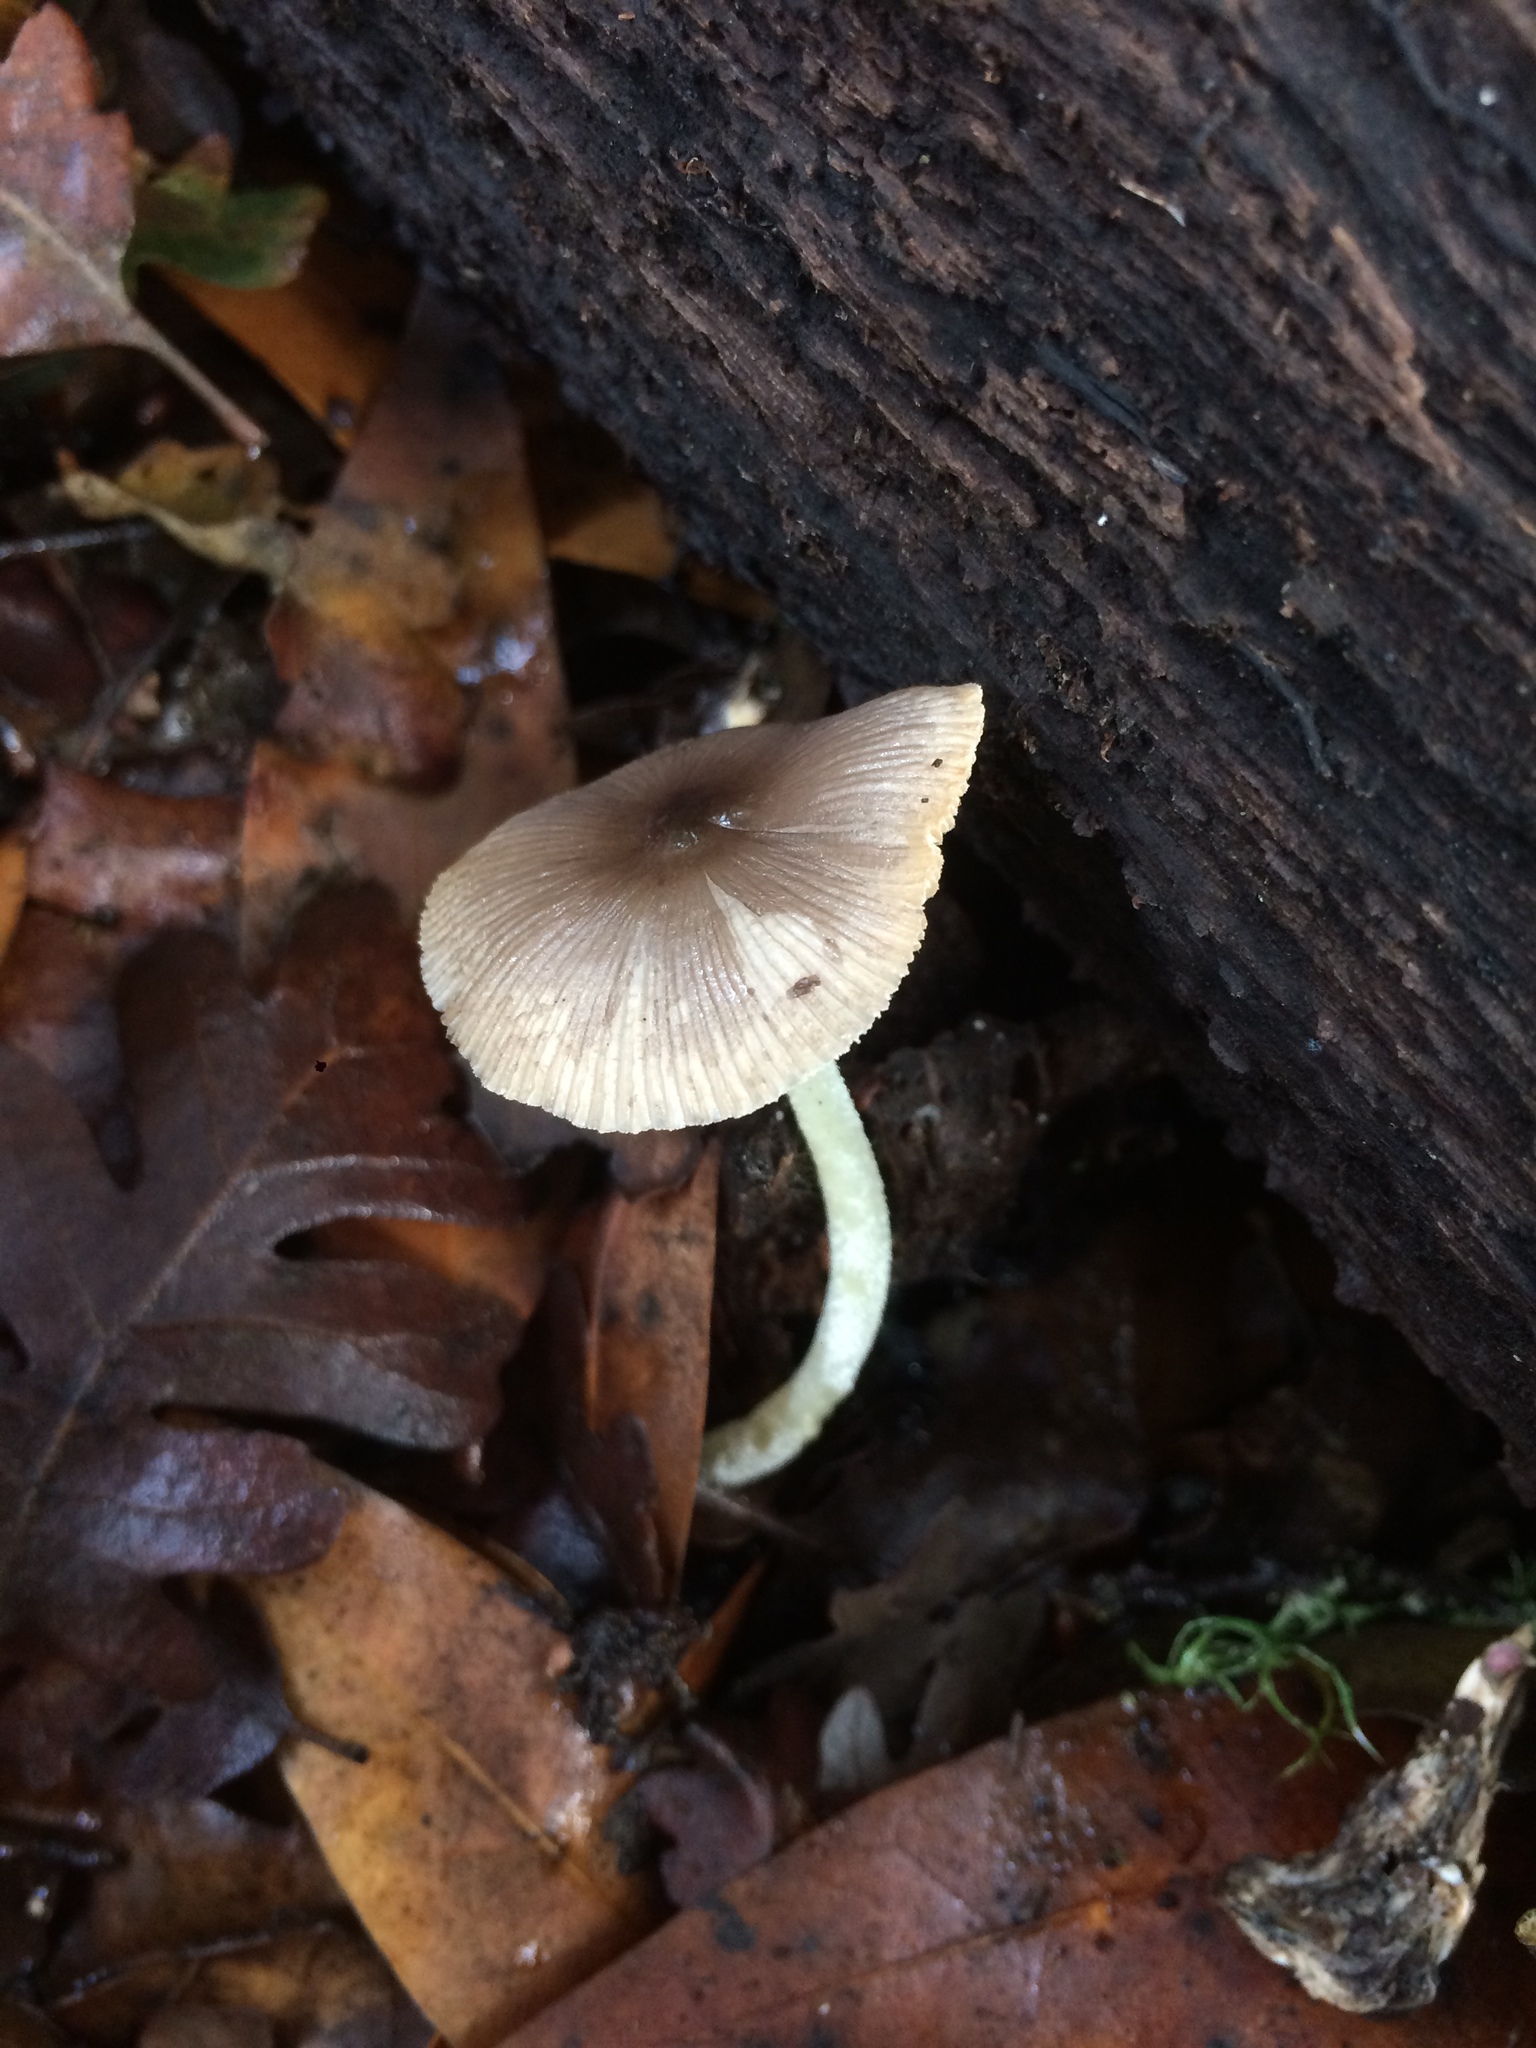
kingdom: Fungi
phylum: Basidiomycota
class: Agaricomycetes
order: Agaricales
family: Bolbitiaceae
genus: Bolbitius
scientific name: Bolbitius reticulatus
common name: Netted fieldcap
